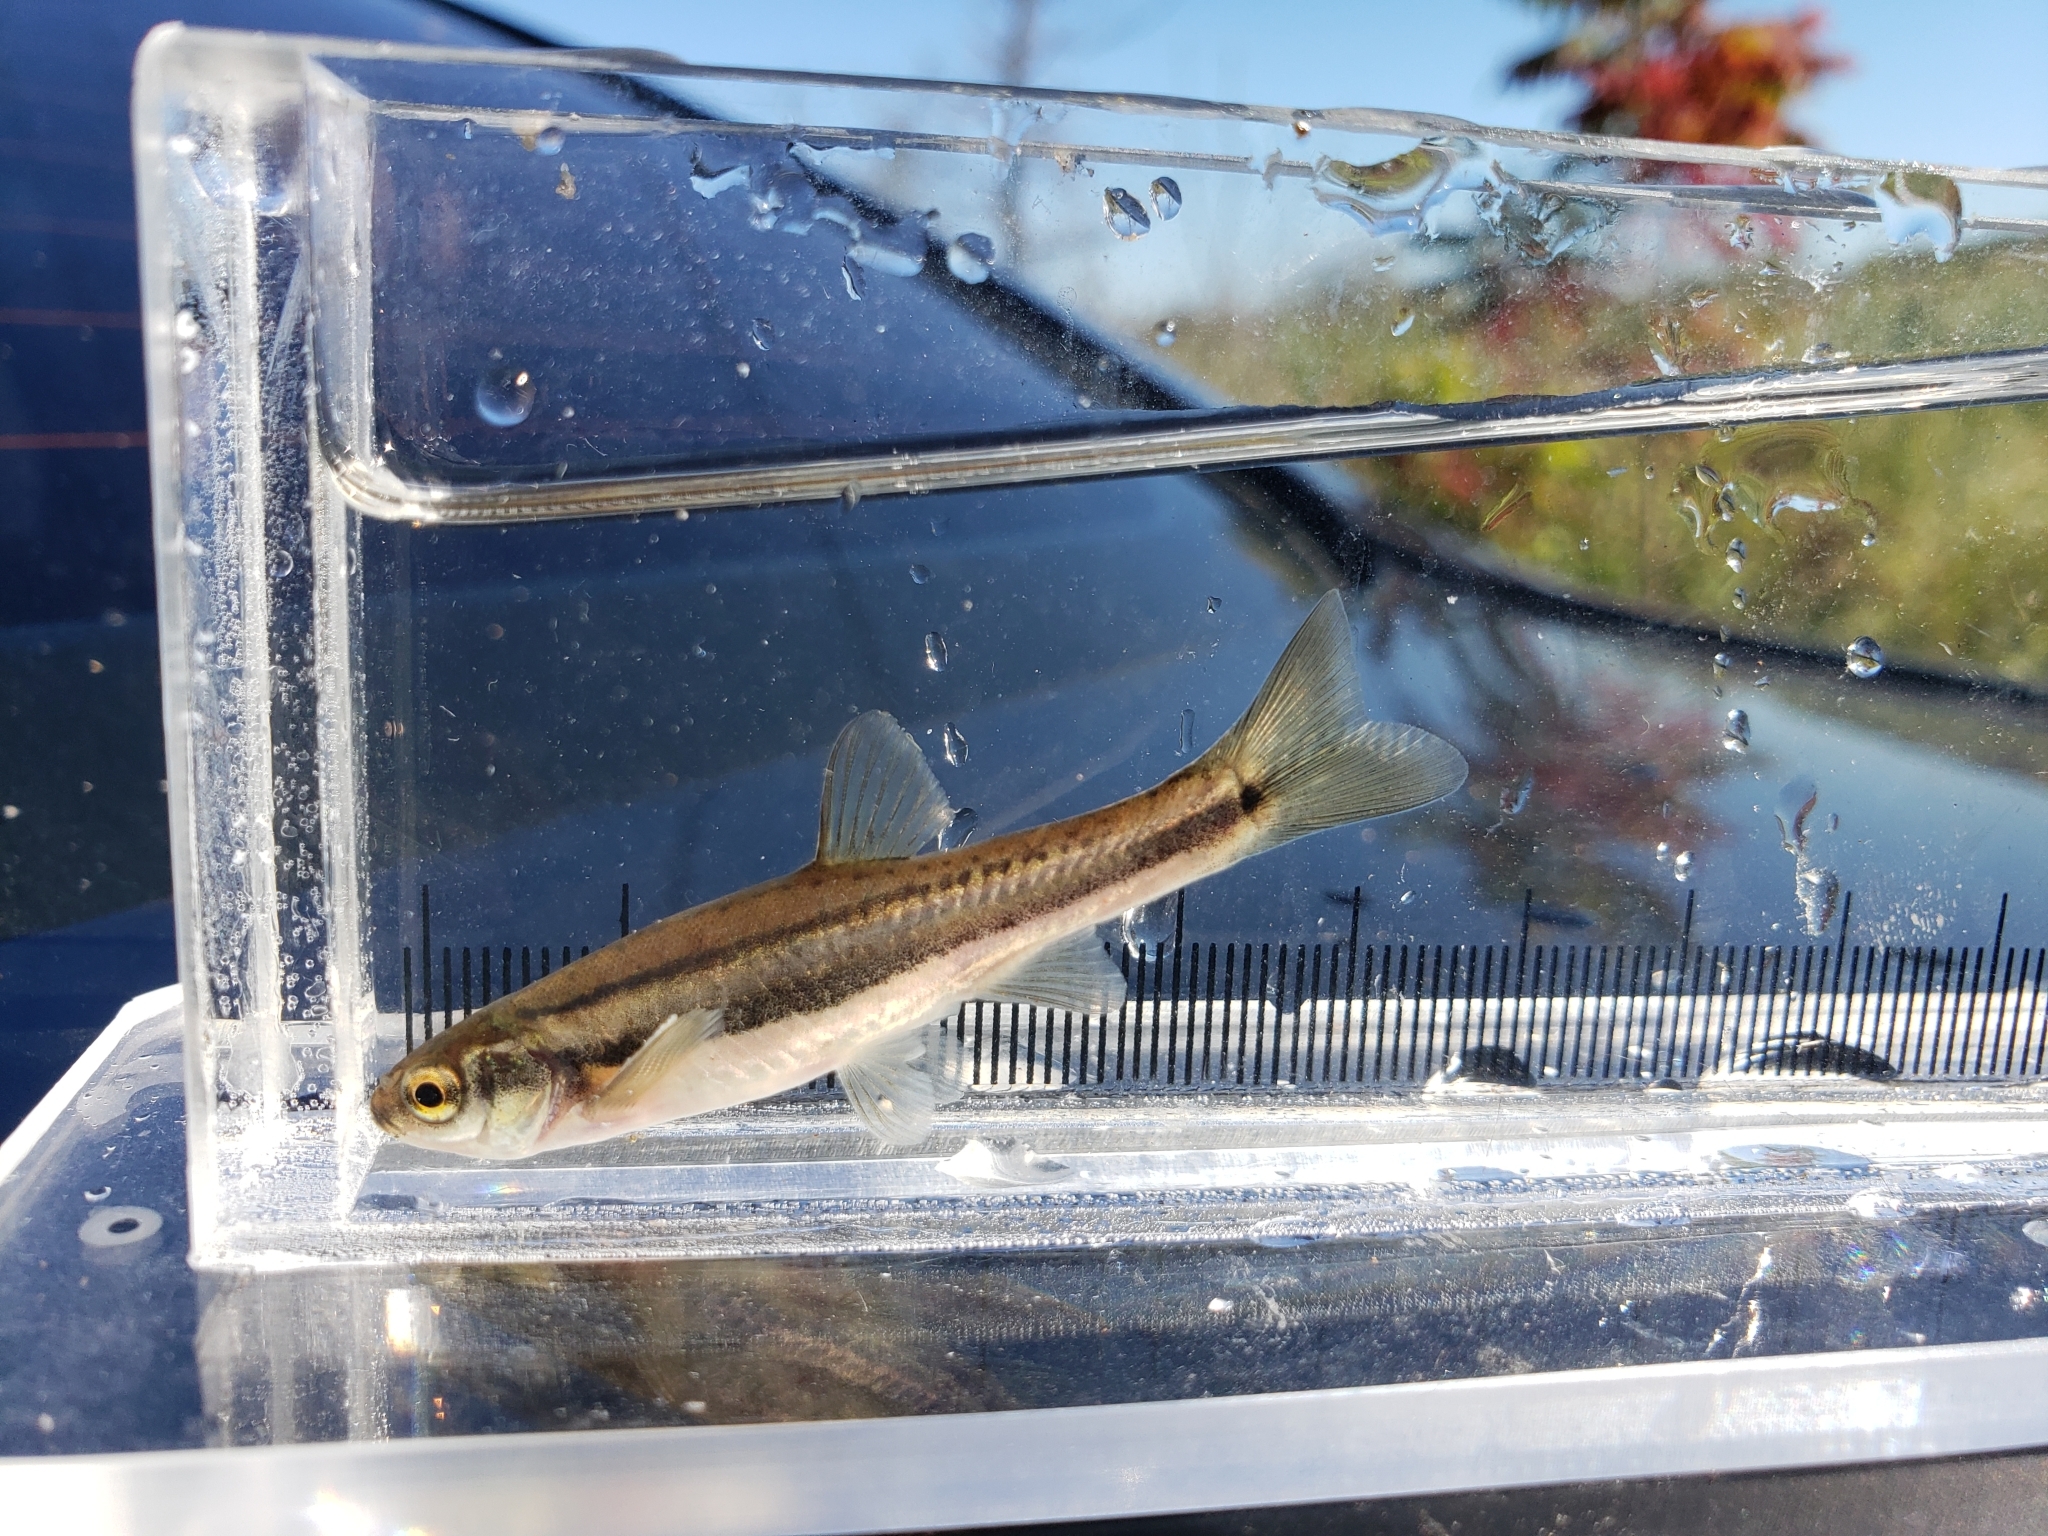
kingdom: Animalia
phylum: Chordata
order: Cypriniformes
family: Cyprinidae
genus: Chrosomus
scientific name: Chrosomus eos
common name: Northern redbelly dace
